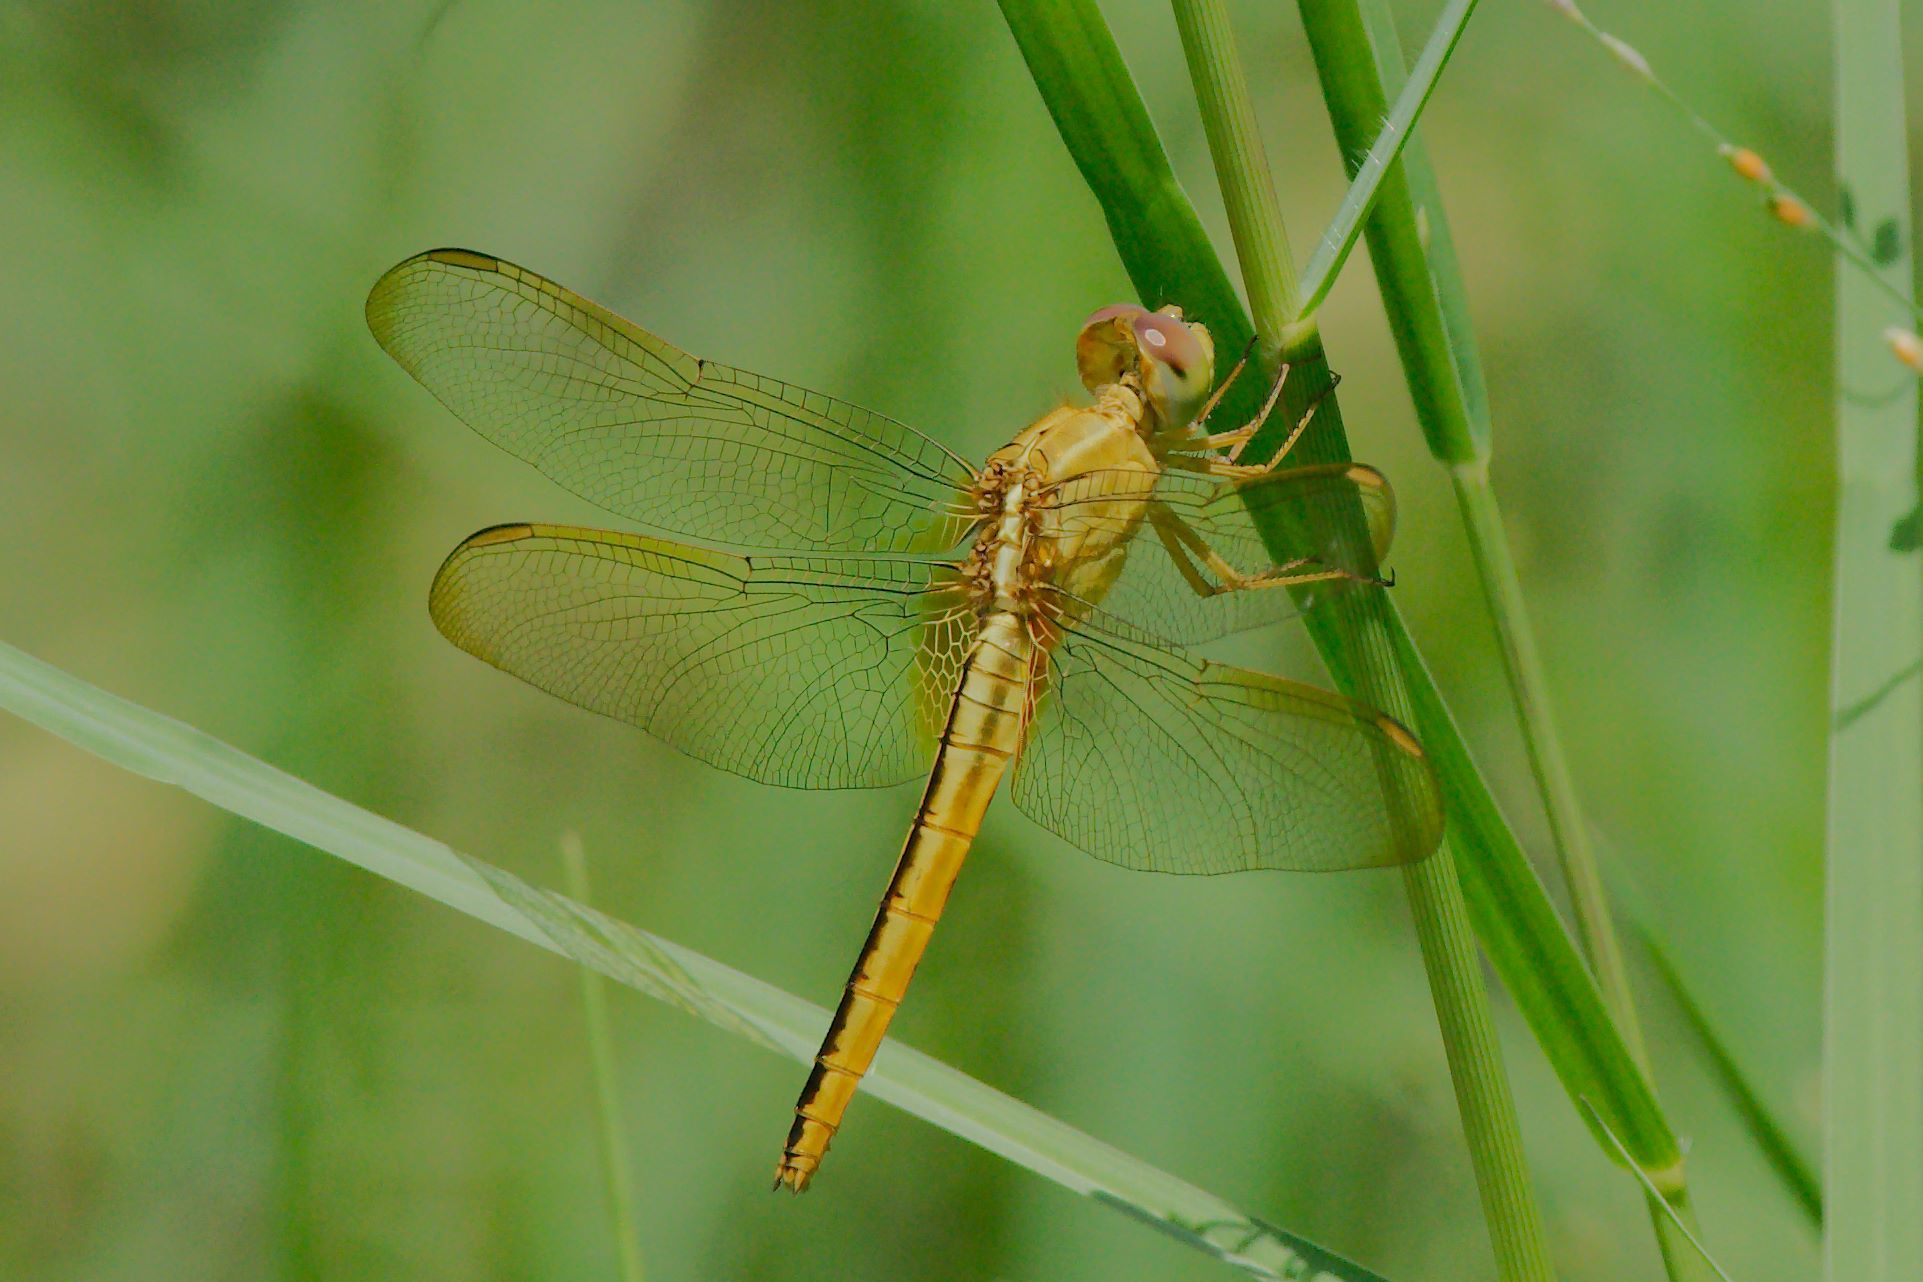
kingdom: Animalia
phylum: Arthropoda
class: Insecta
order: Odonata
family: Libellulidae
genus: Crocothemis
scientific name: Crocothemis servilia
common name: Scarlet skimmer
